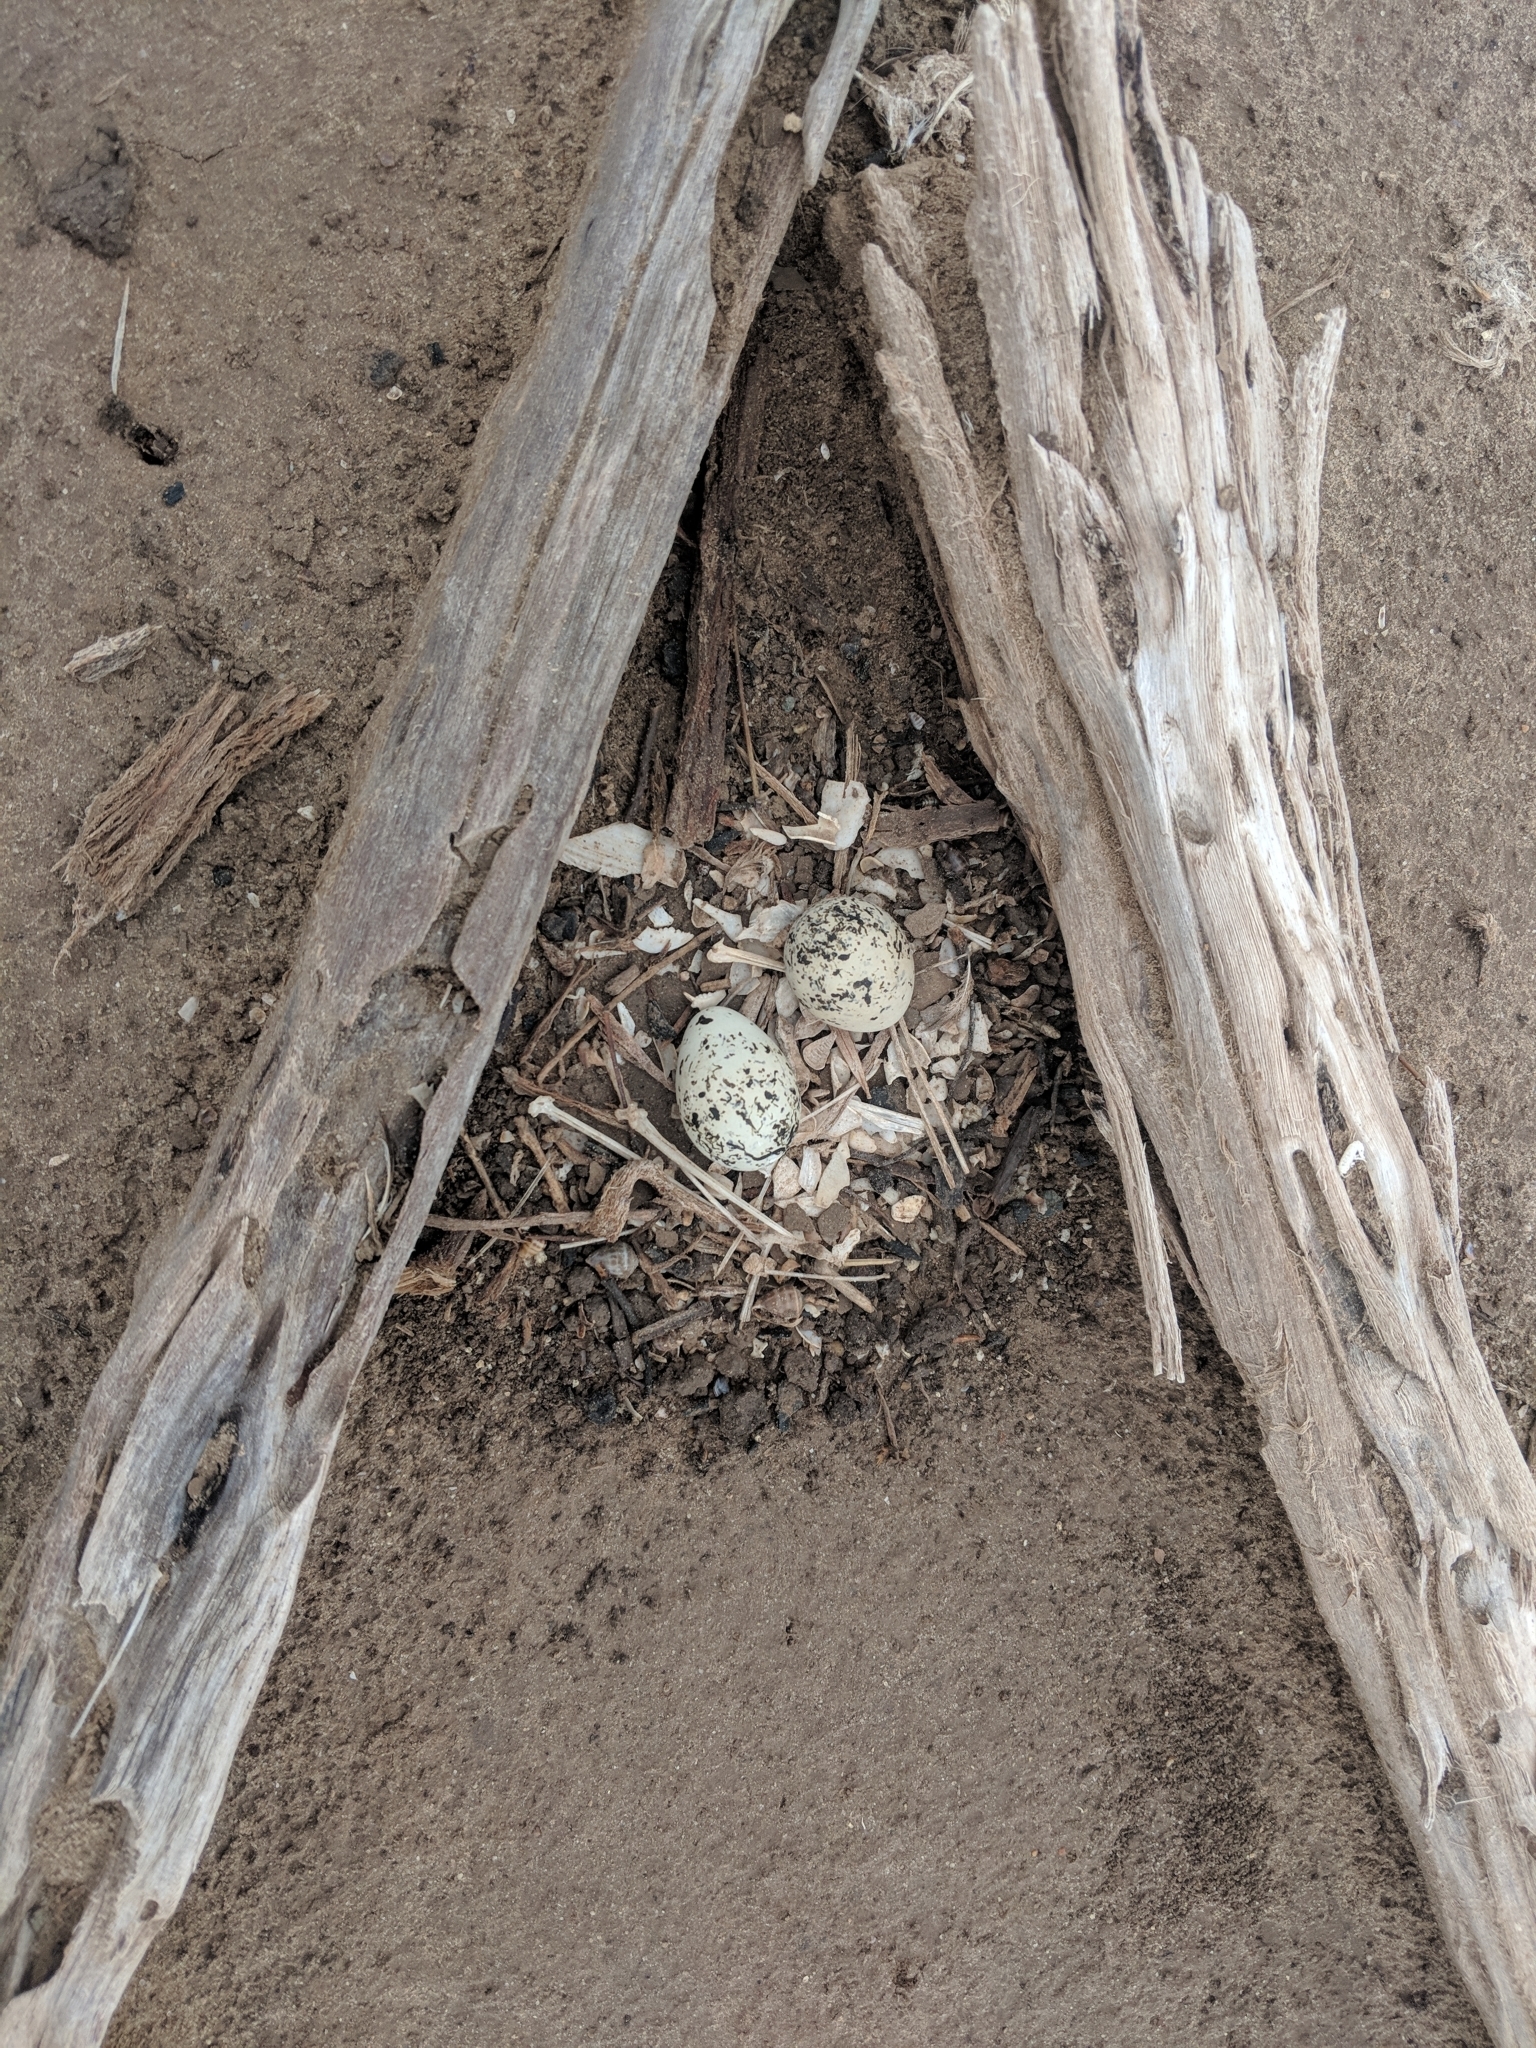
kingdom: Animalia
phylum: Chordata
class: Aves
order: Charadriiformes
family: Charadriidae
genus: Charadrius
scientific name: Charadrius vociferus
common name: Killdeer
